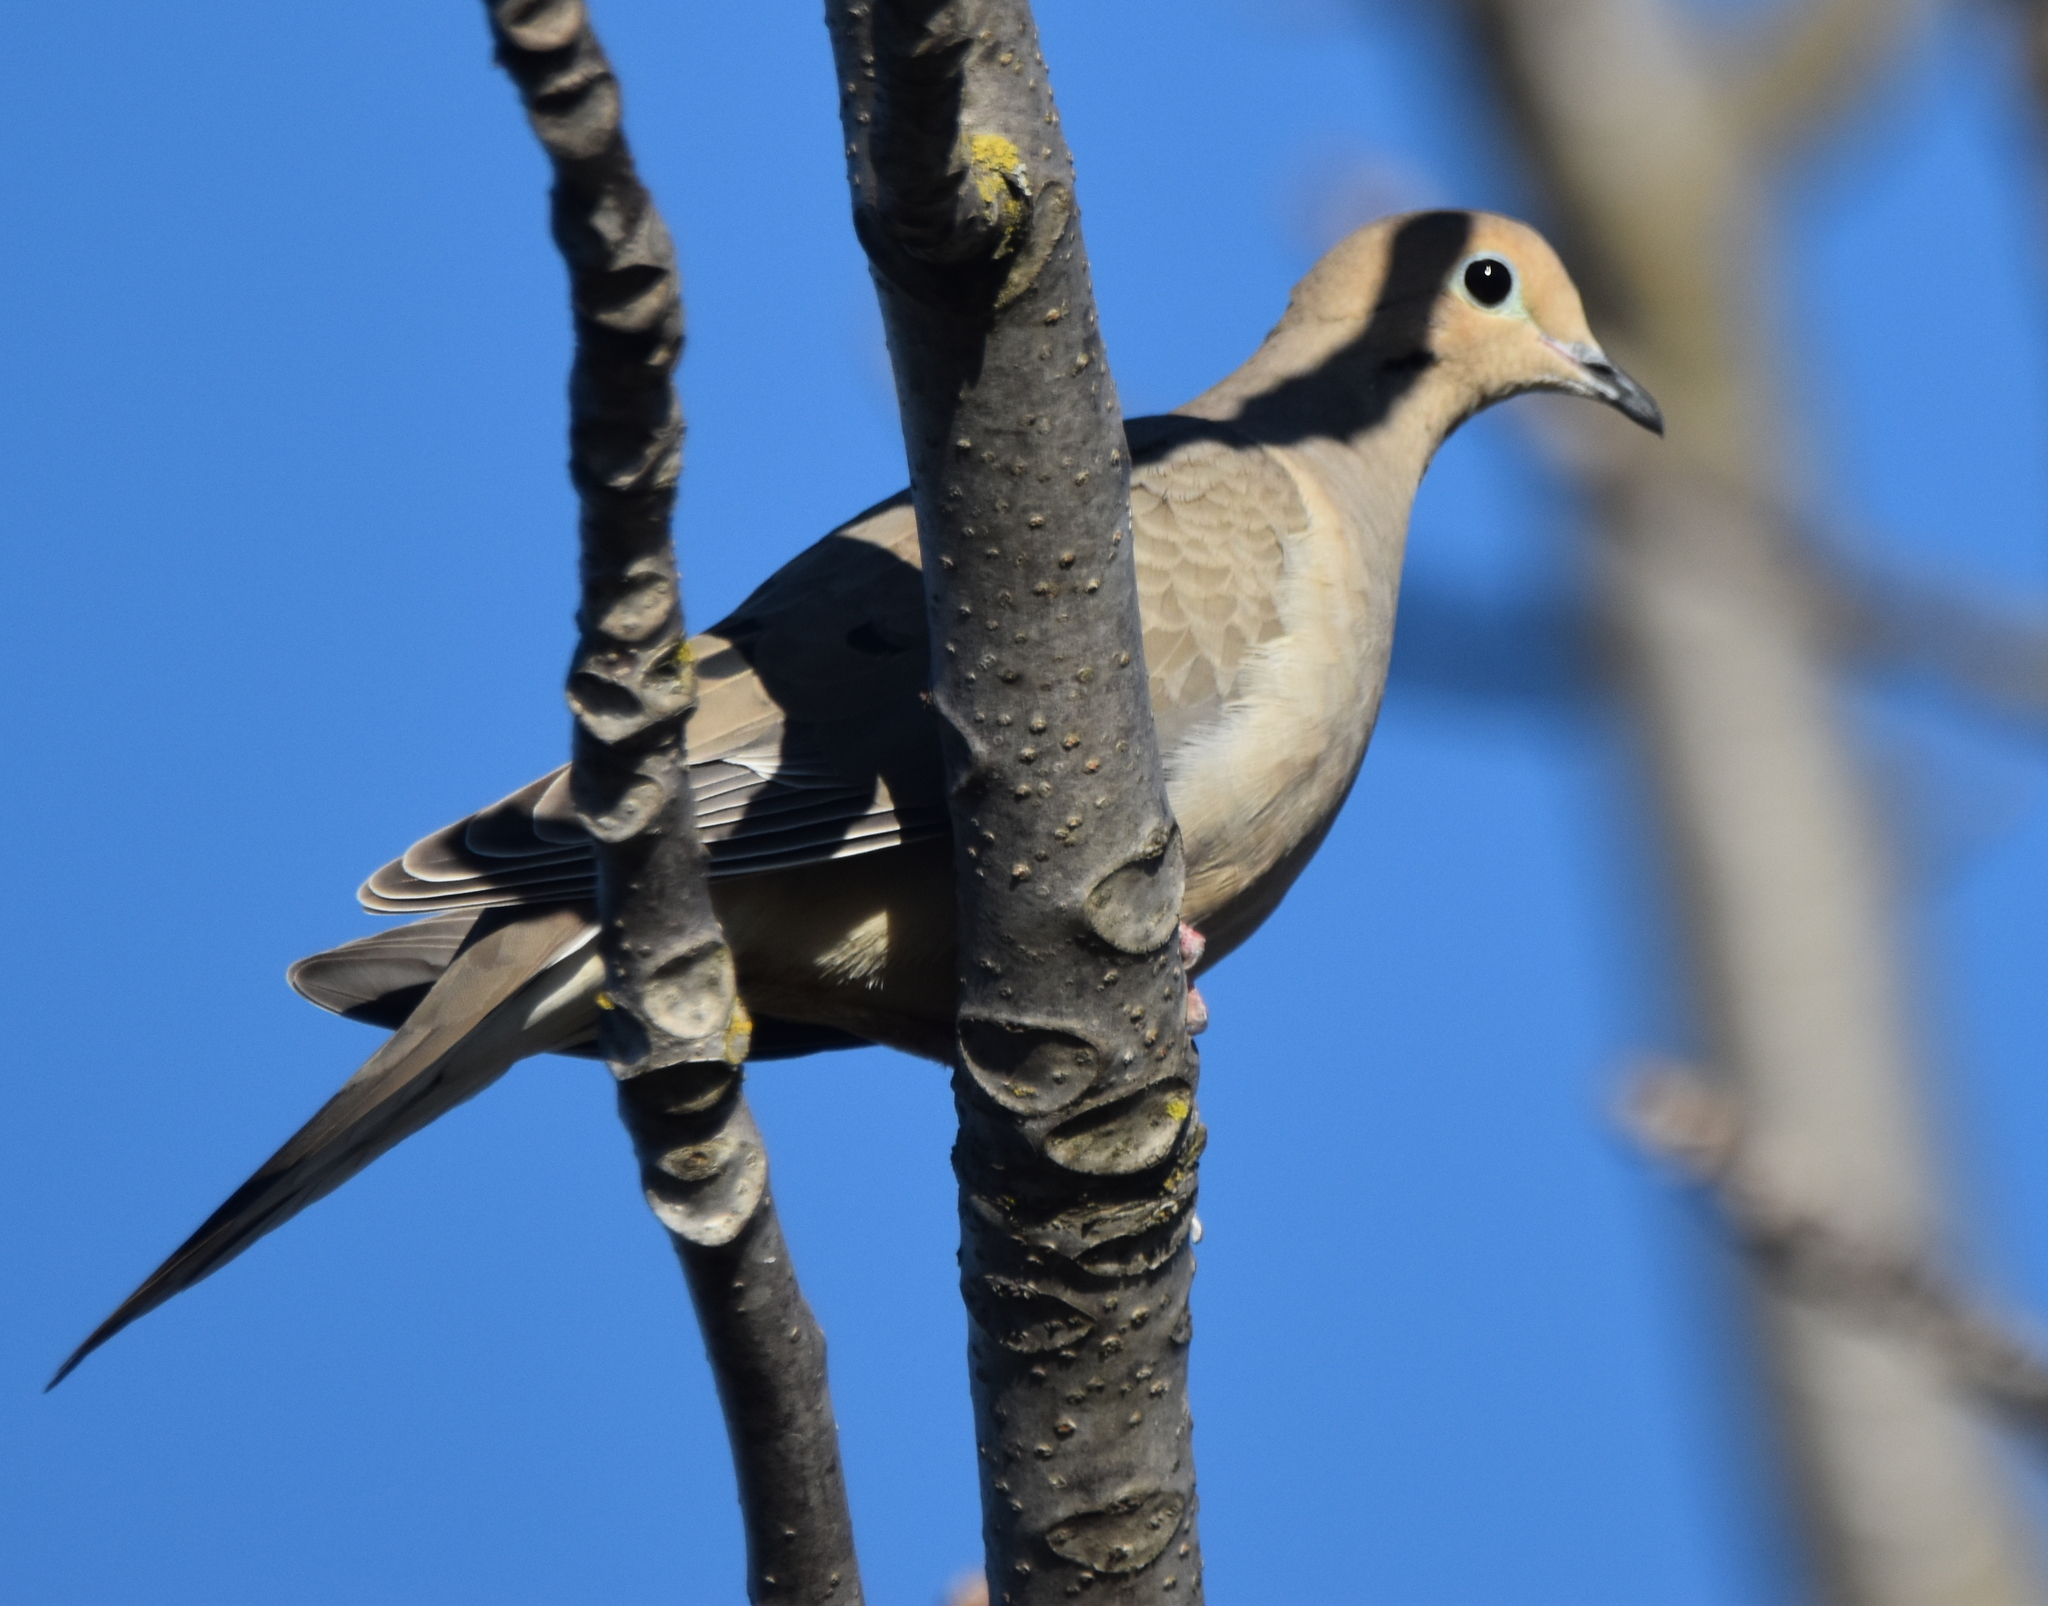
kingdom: Animalia
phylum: Chordata
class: Aves
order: Columbiformes
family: Columbidae
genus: Zenaida
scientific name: Zenaida macroura
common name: Mourning dove
